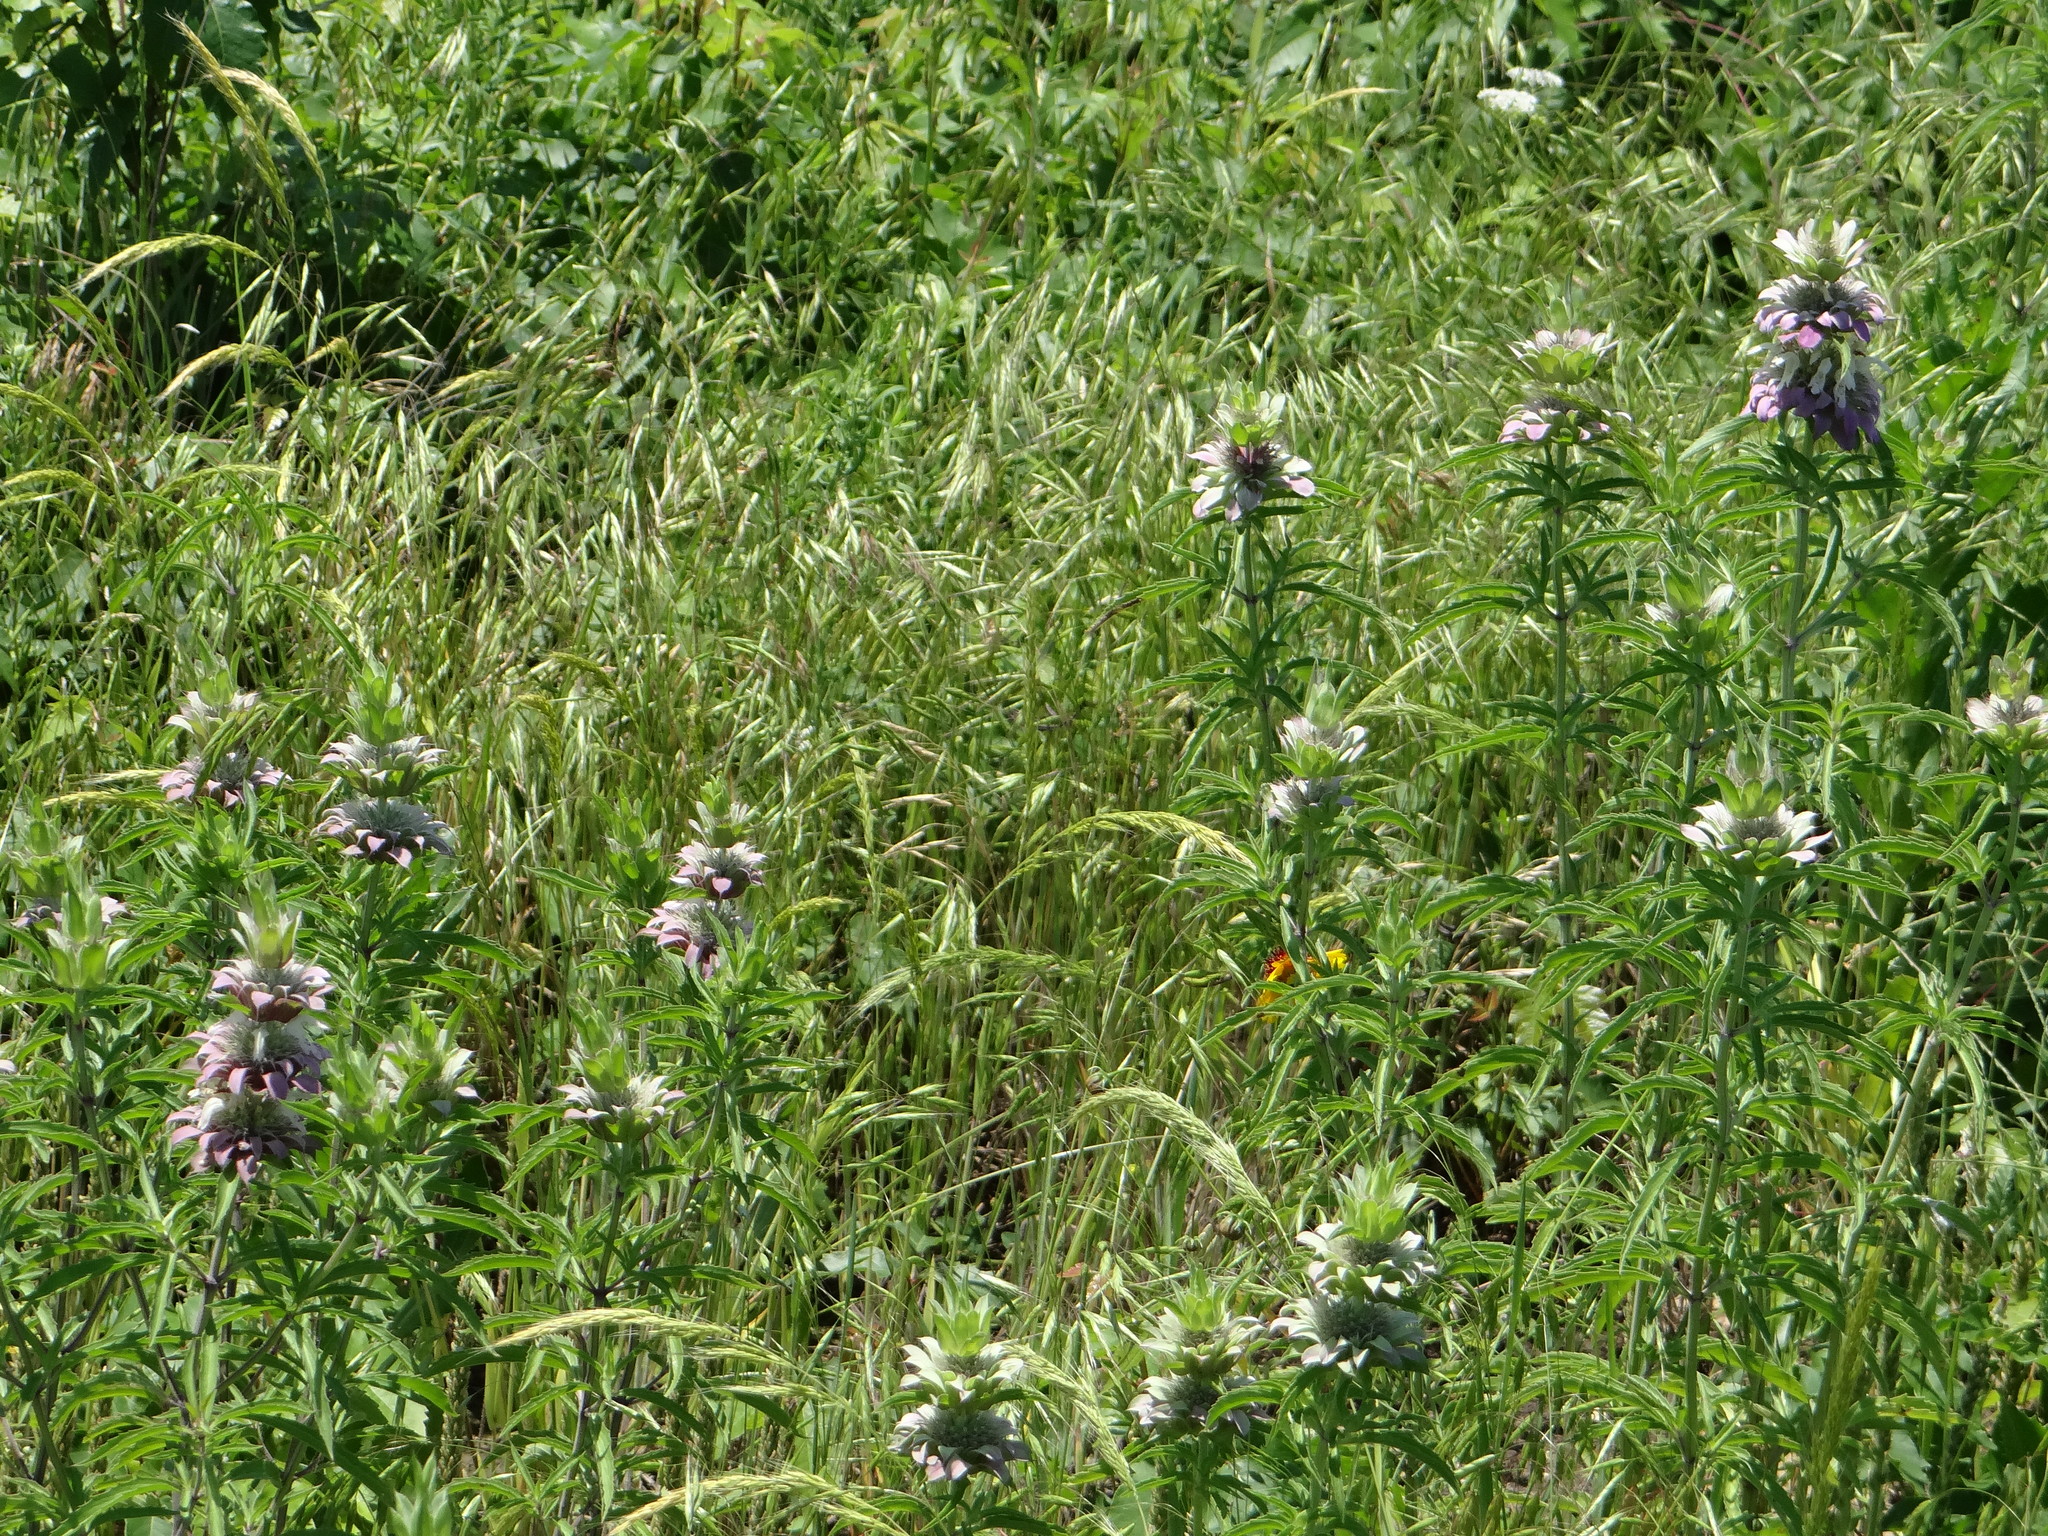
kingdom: Plantae
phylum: Tracheophyta
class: Magnoliopsida
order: Lamiales
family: Lamiaceae
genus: Monarda
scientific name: Monarda citriodora
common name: Lemon beebalm
